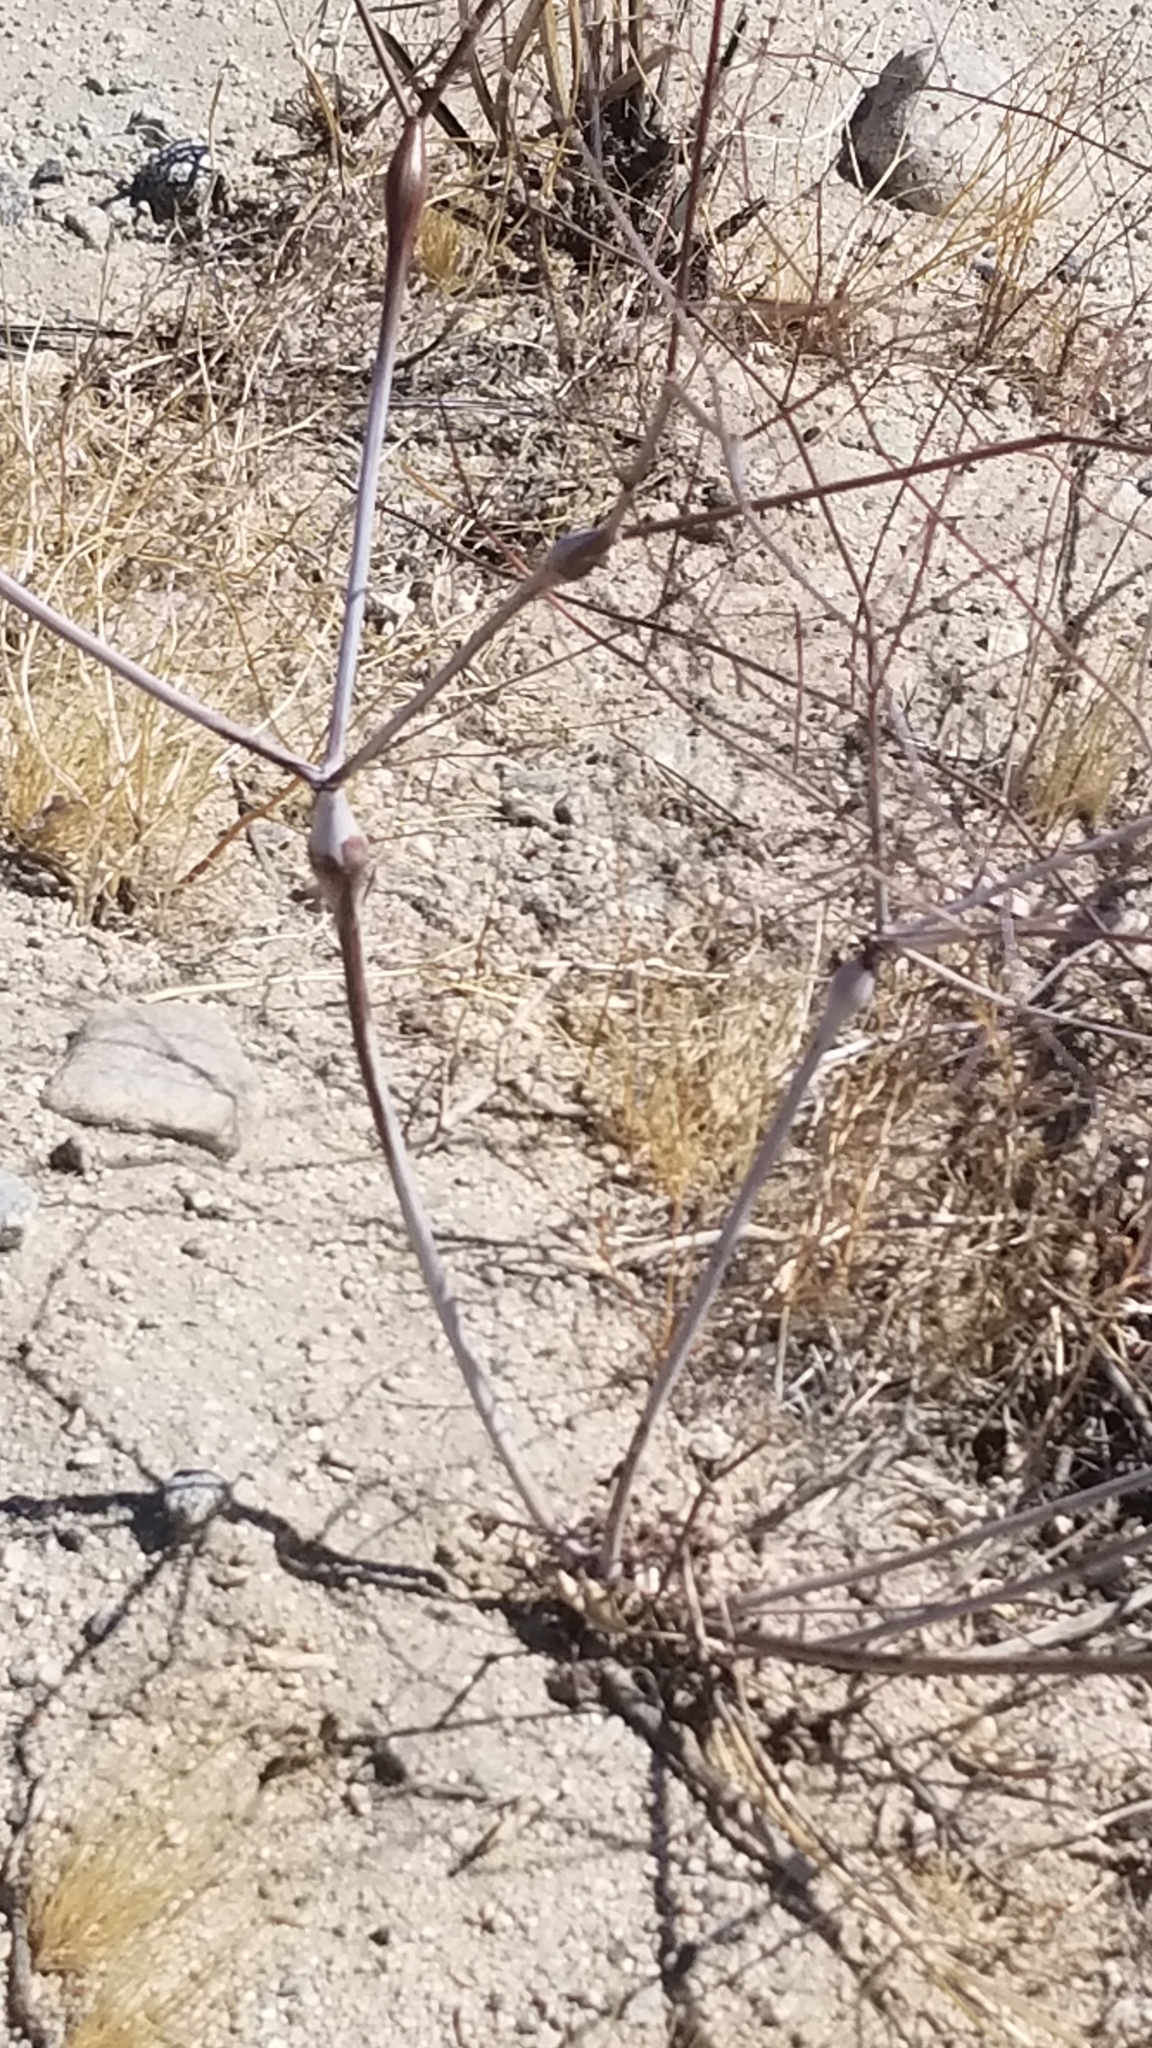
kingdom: Plantae
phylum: Tracheophyta
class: Magnoliopsida
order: Caryophyllales
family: Polygonaceae
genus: Eriogonum
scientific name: Eriogonum inflatum
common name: Desert trumpet
